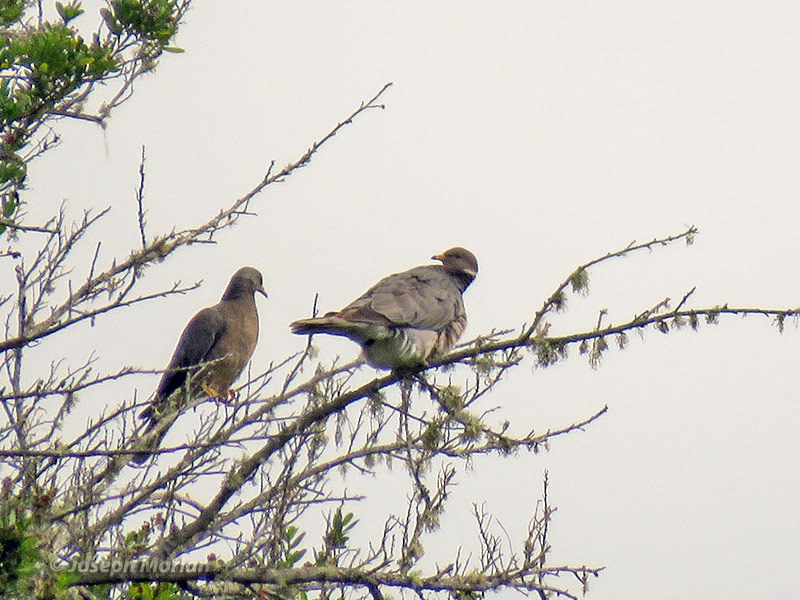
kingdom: Animalia
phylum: Chordata
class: Aves
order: Columbiformes
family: Columbidae
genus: Patagioenas
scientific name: Patagioenas fasciata
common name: Band-tailed pigeon
